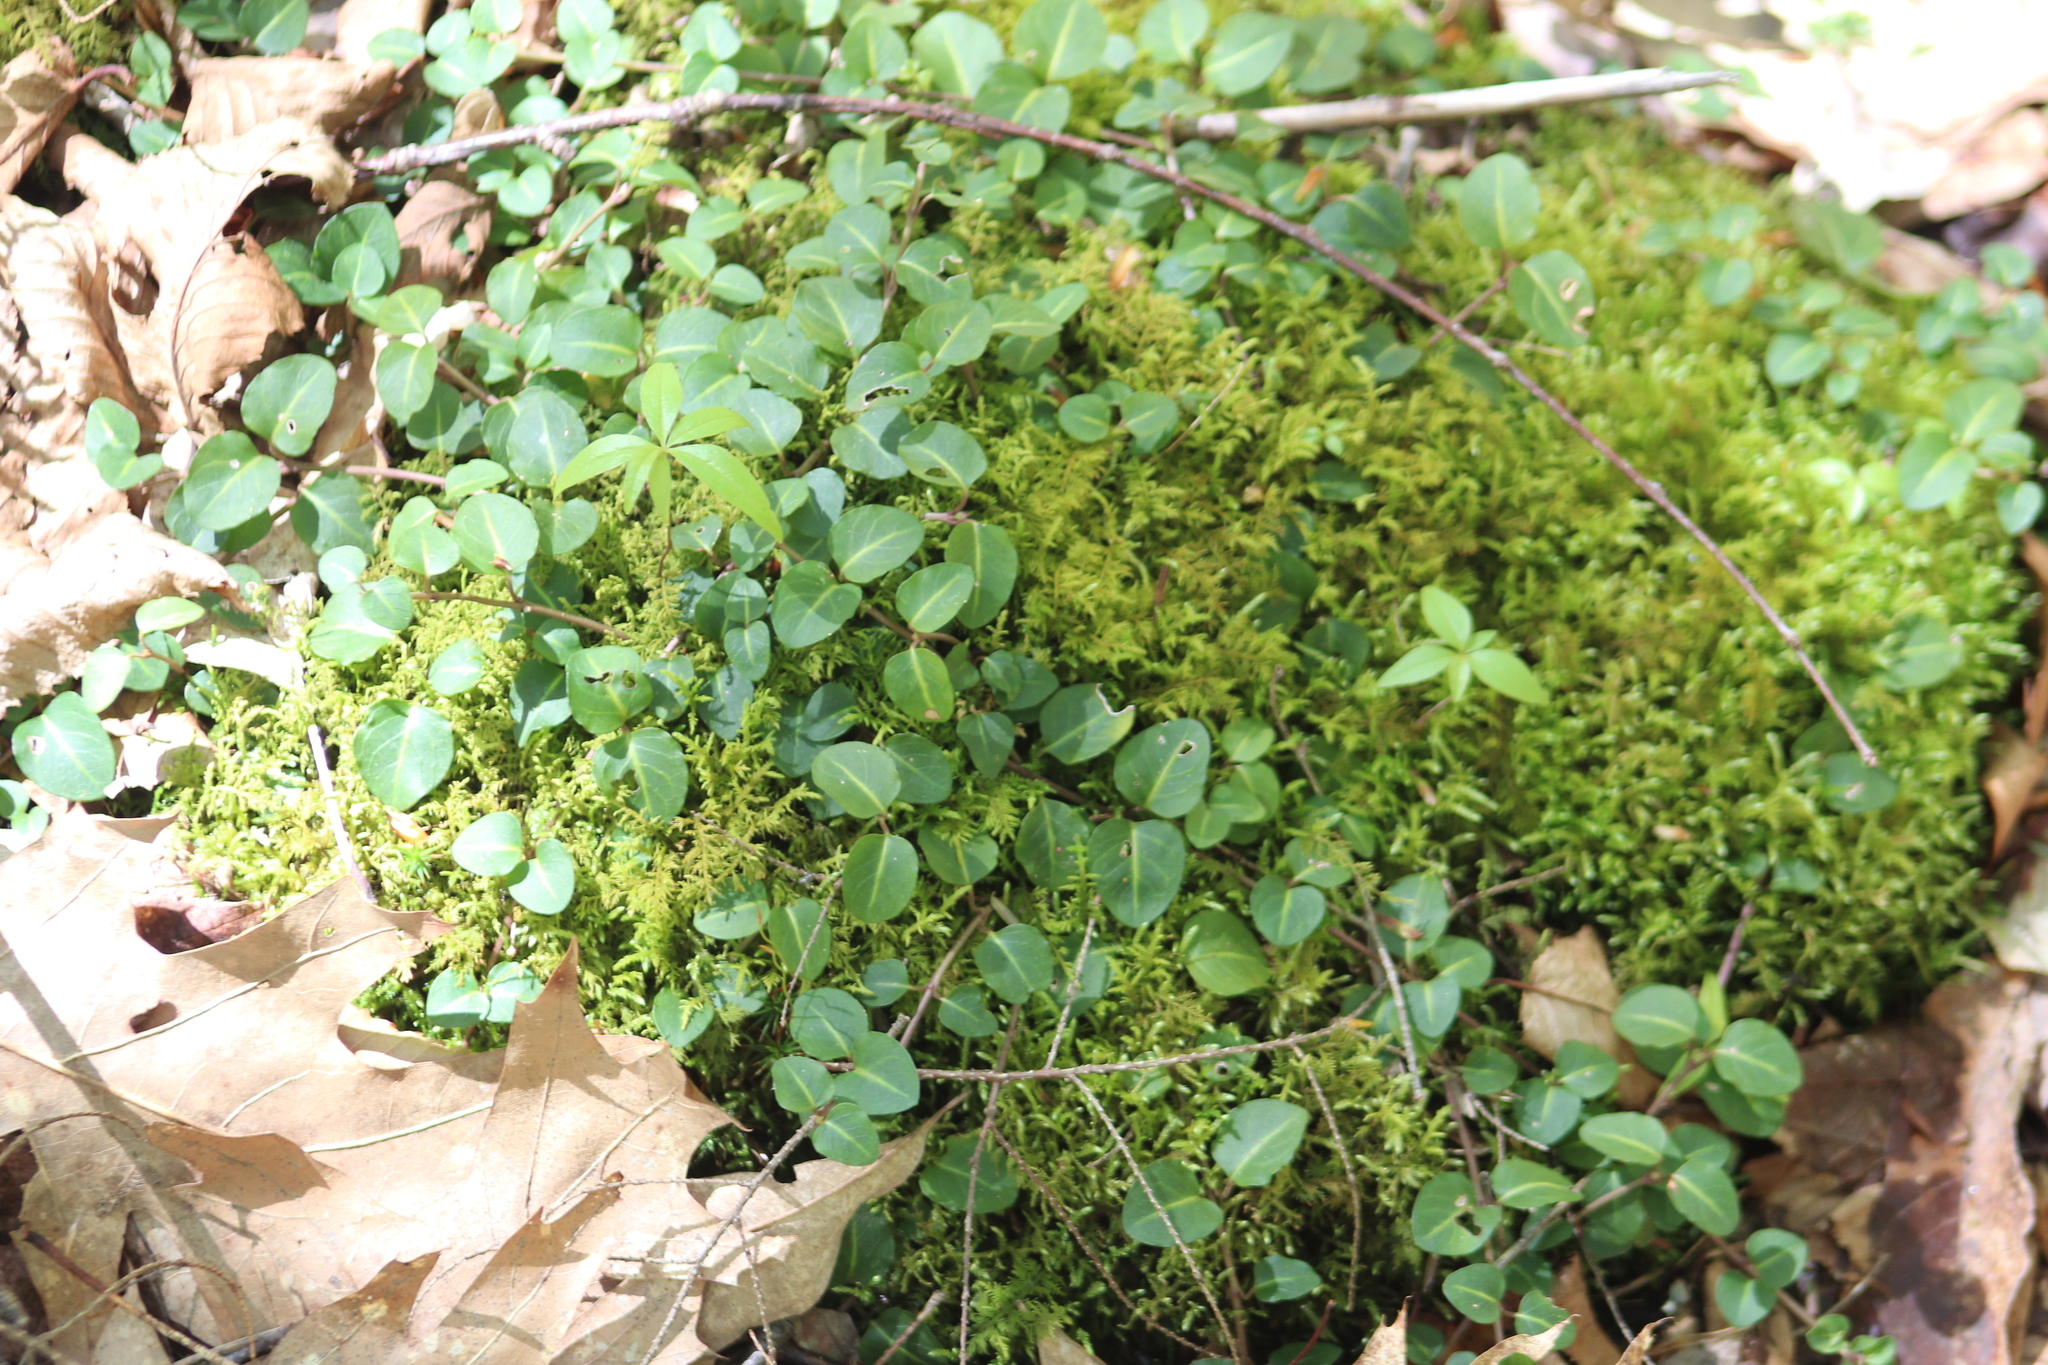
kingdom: Plantae
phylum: Tracheophyta
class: Magnoliopsida
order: Gentianales
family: Rubiaceae
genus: Mitchella
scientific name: Mitchella repens
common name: Partridge-berry
